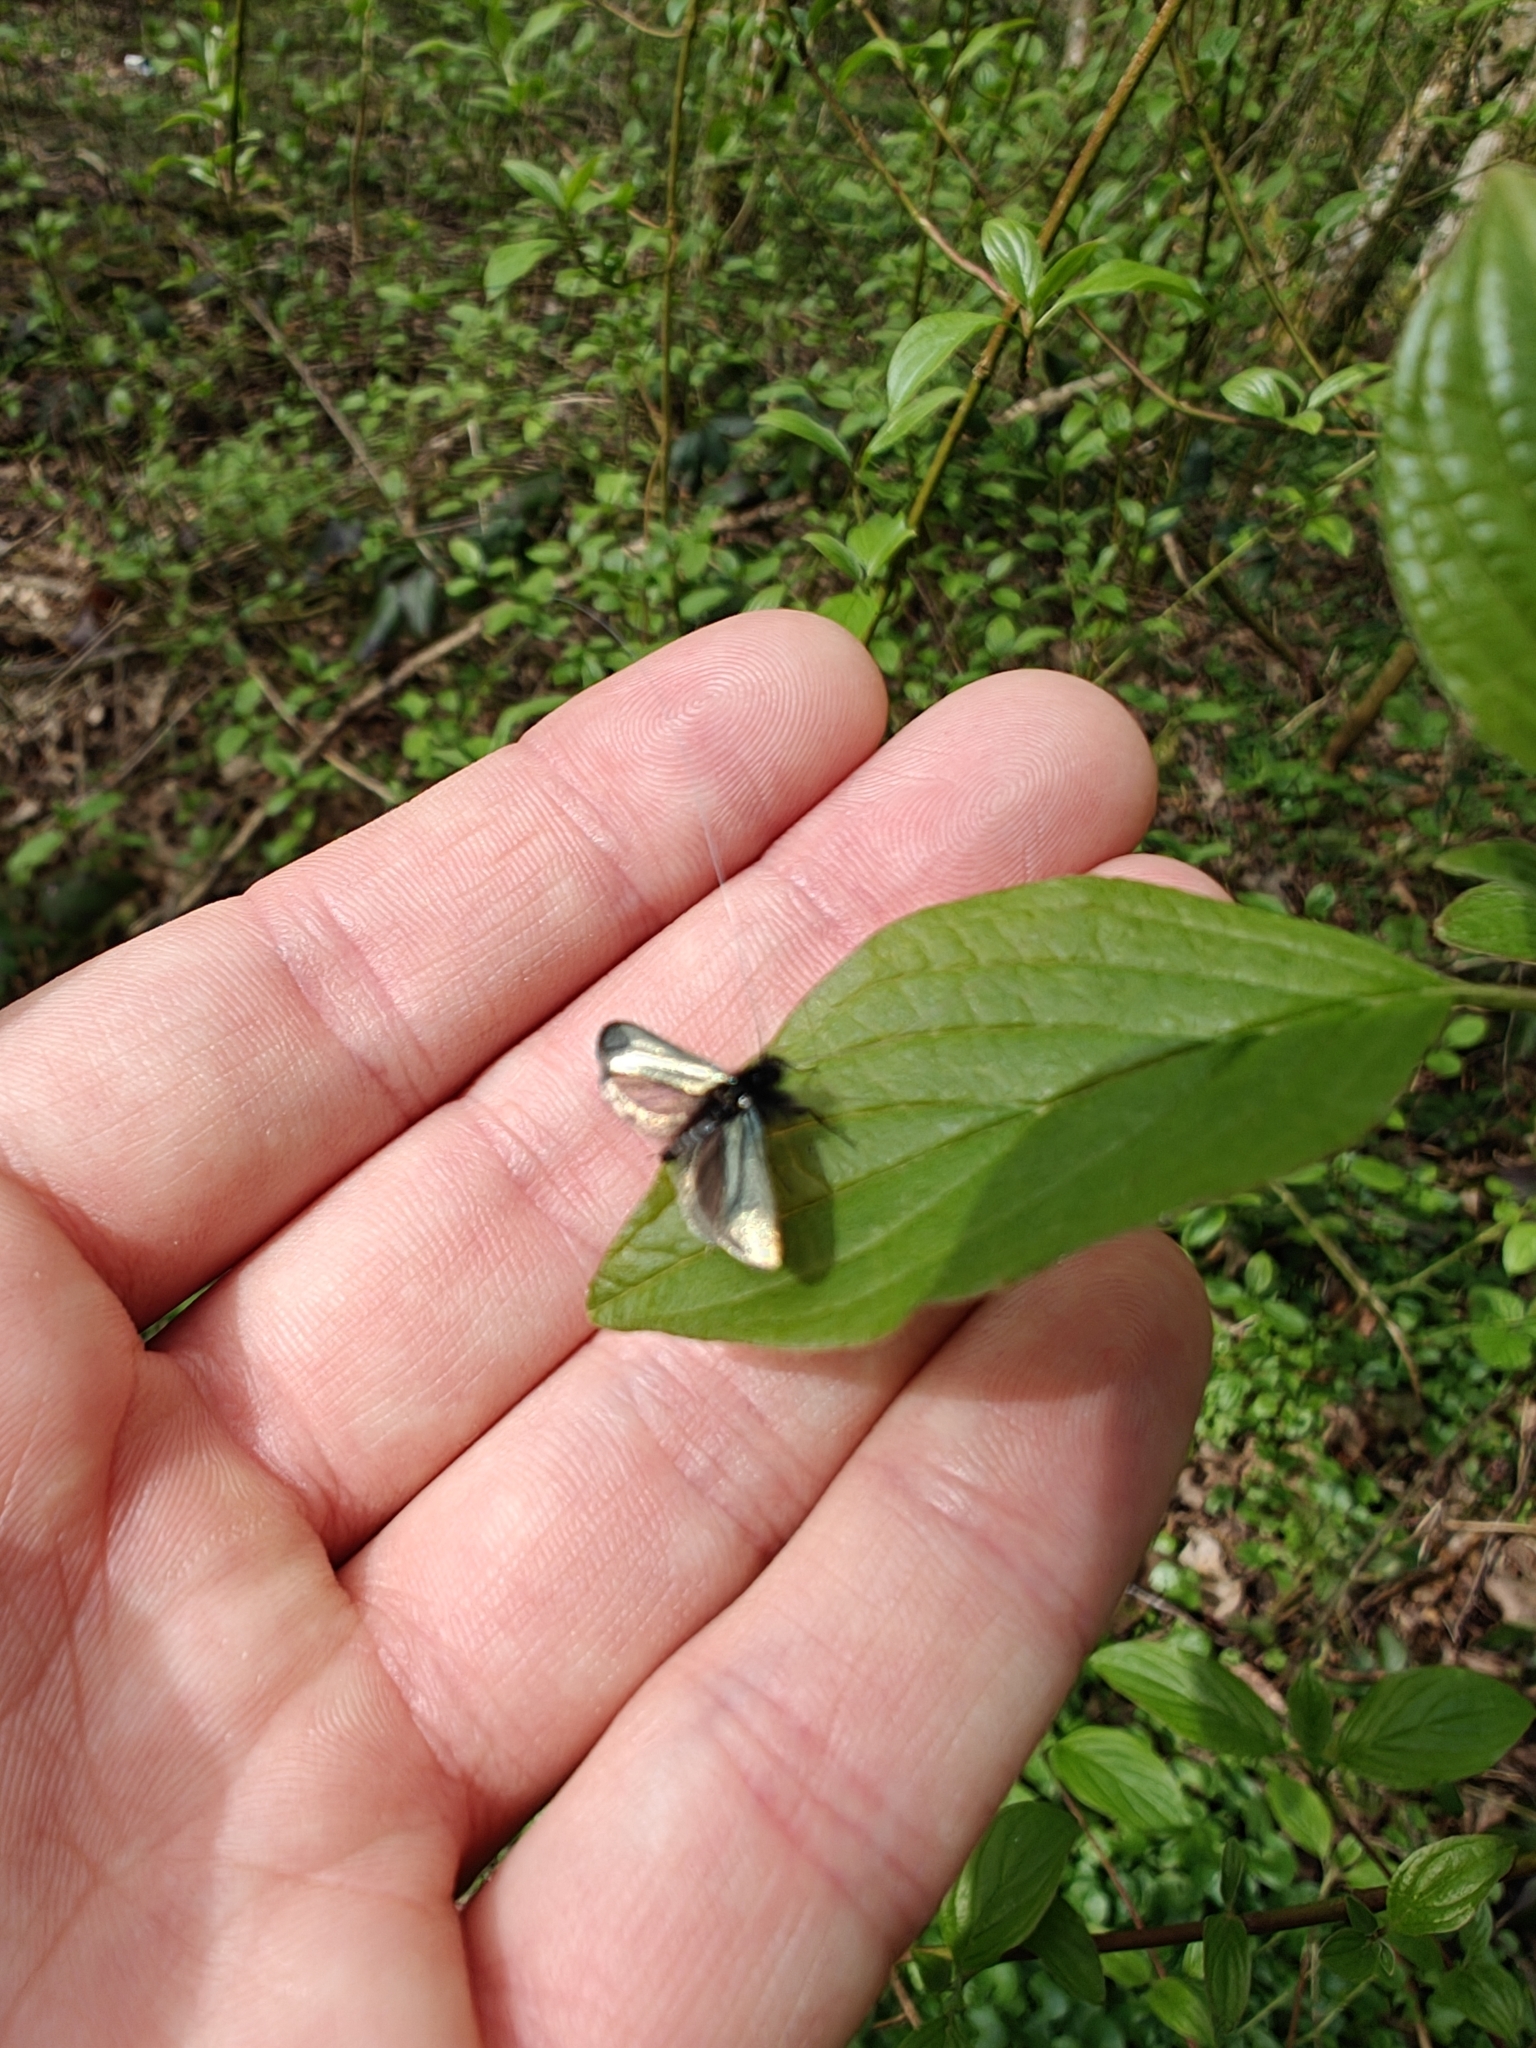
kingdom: Animalia
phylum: Arthropoda
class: Insecta
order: Lepidoptera
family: Adelidae
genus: Adela
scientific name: Adela viridella
